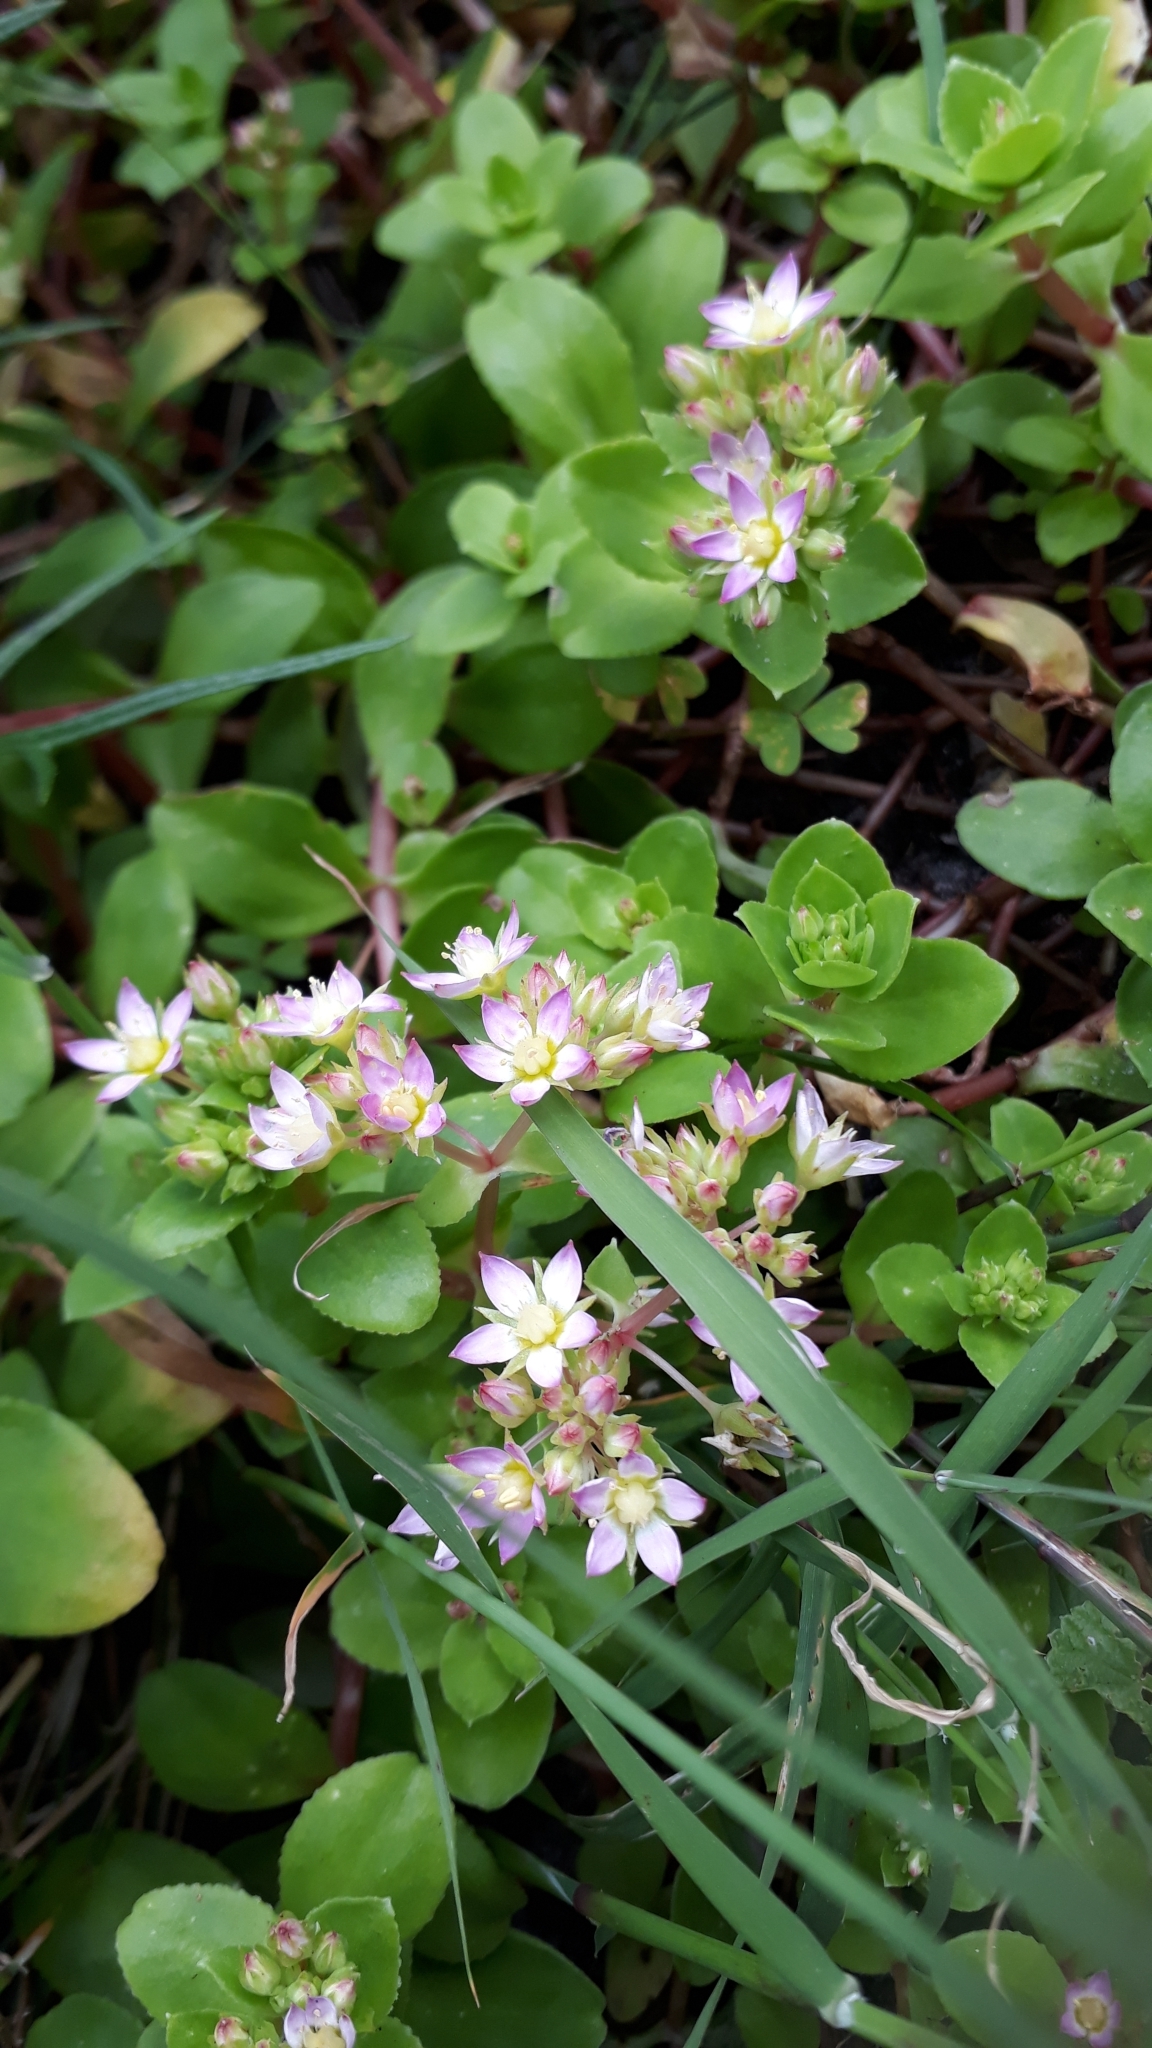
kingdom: Plantae
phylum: Tracheophyta
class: Magnoliopsida
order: Saxifragales
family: Crassulaceae
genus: Crassula
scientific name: Crassula pellucida
